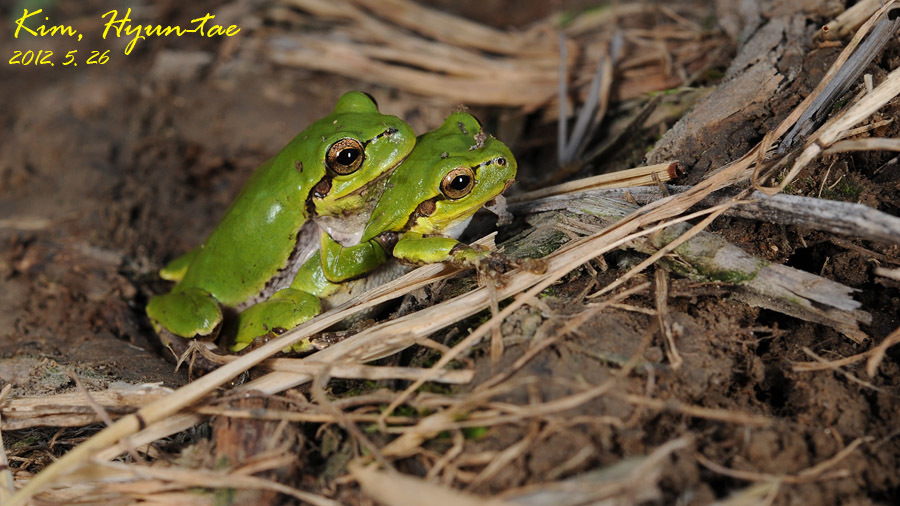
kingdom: Animalia
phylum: Chordata
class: Amphibia
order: Anura
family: Hylidae
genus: Dryophytes
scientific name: Dryophytes japonicus
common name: Japanese treefrog
